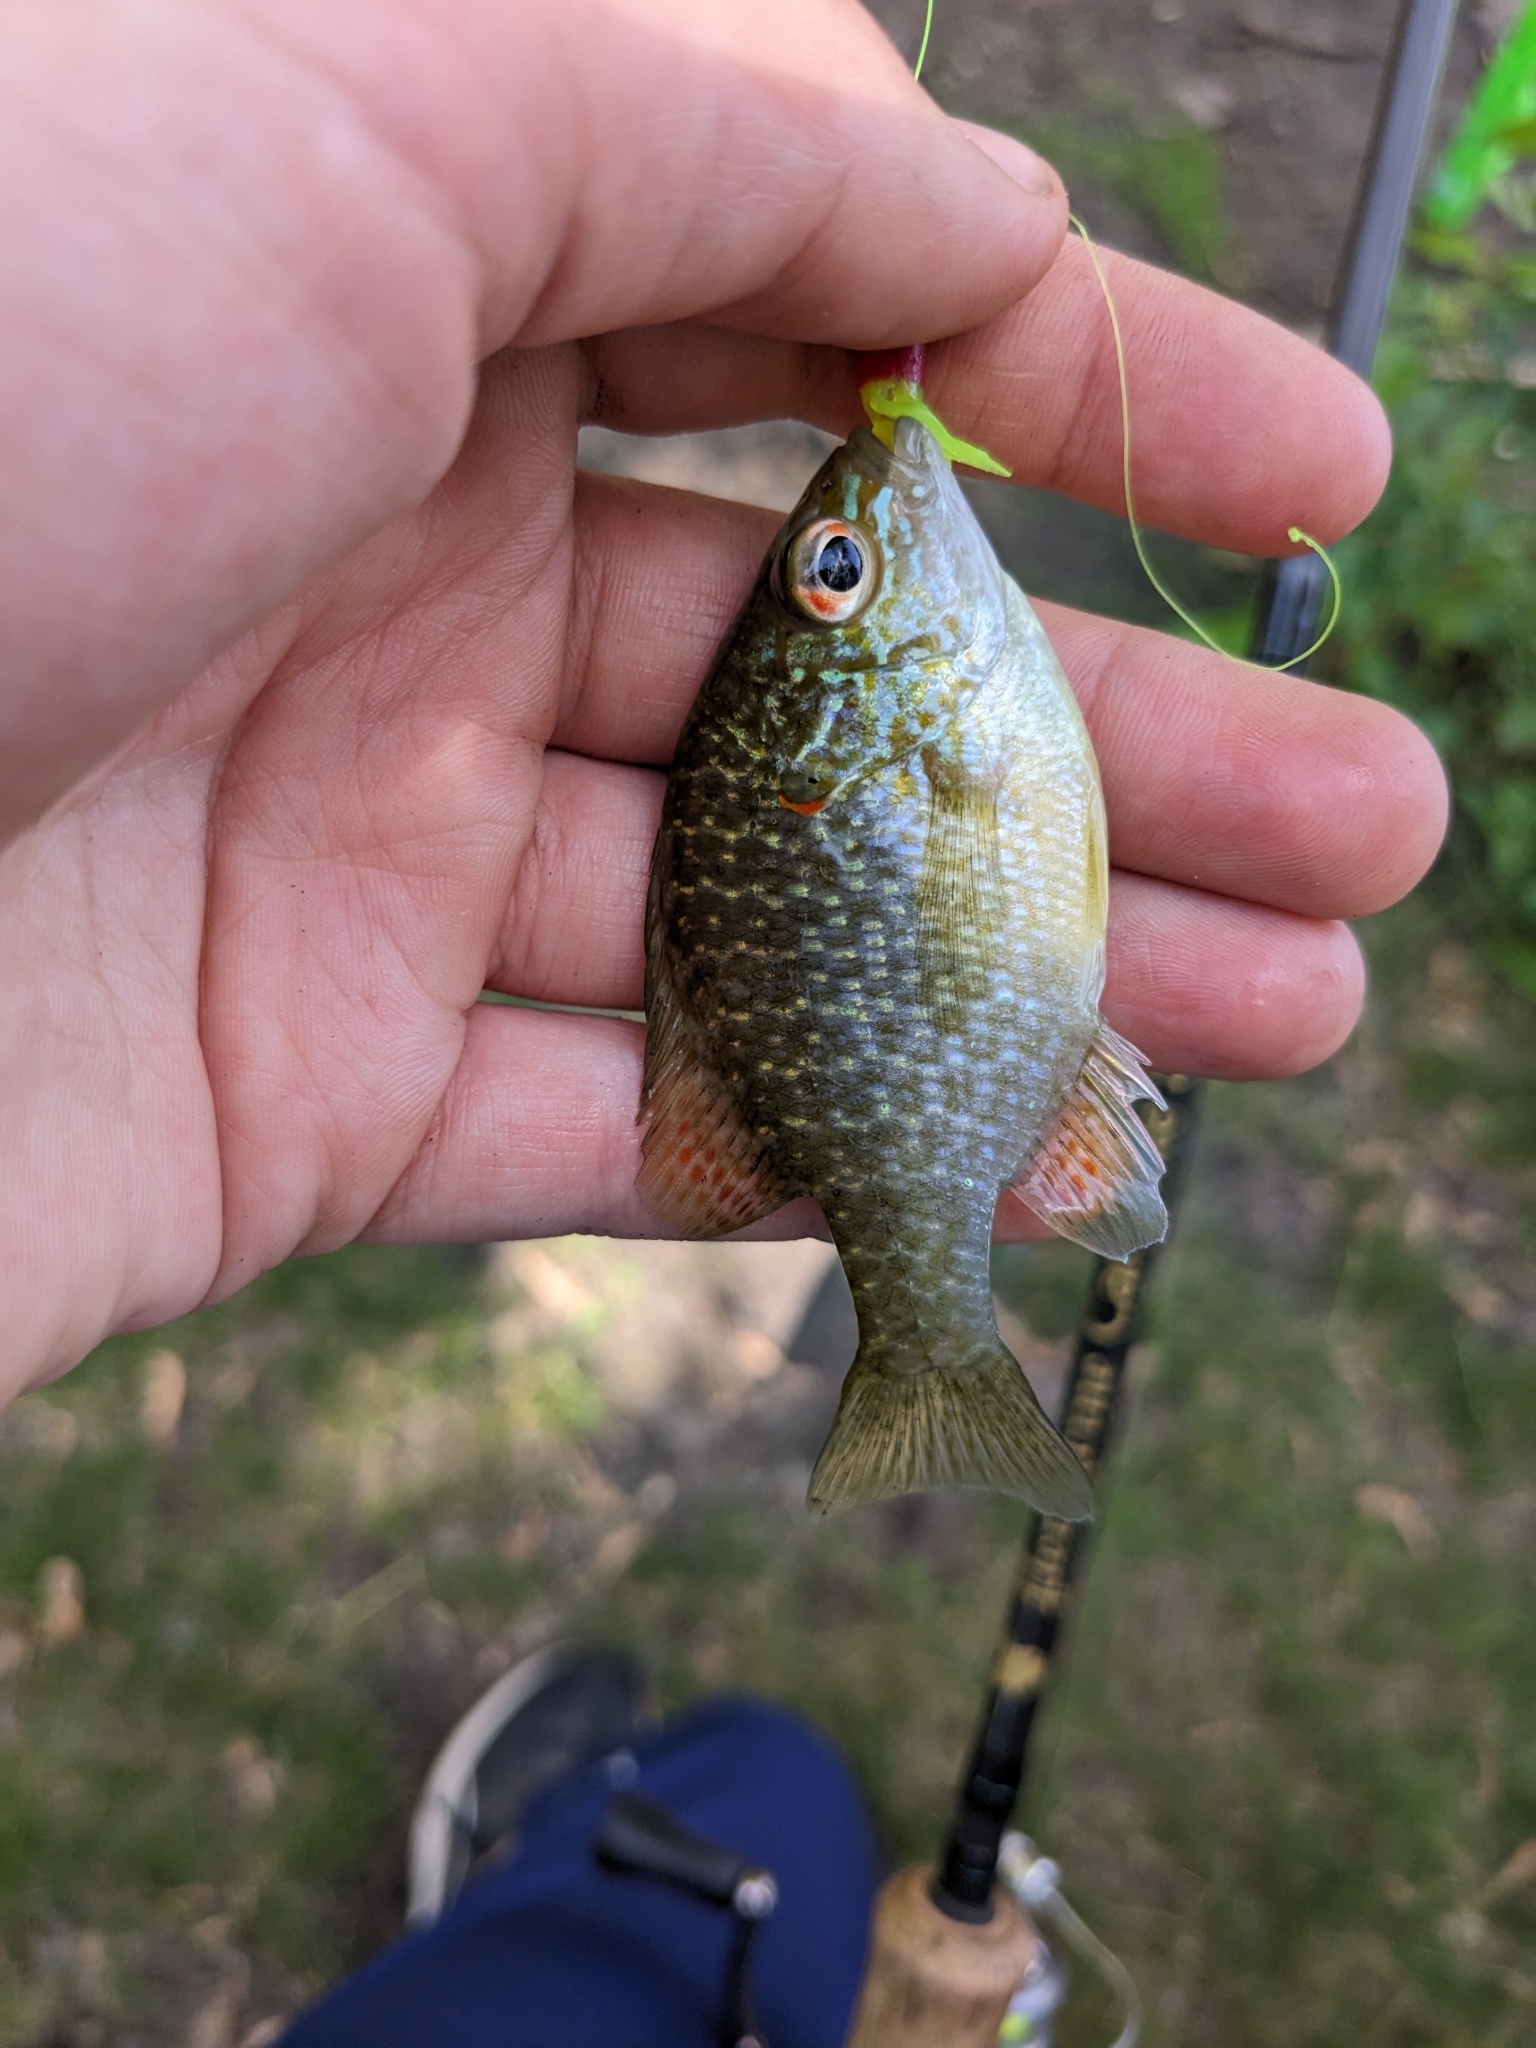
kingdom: Animalia
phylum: Chordata
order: Perciformes
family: Centrarchidae
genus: Lepomis
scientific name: Lepomis peltastes
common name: Northern sunfish
